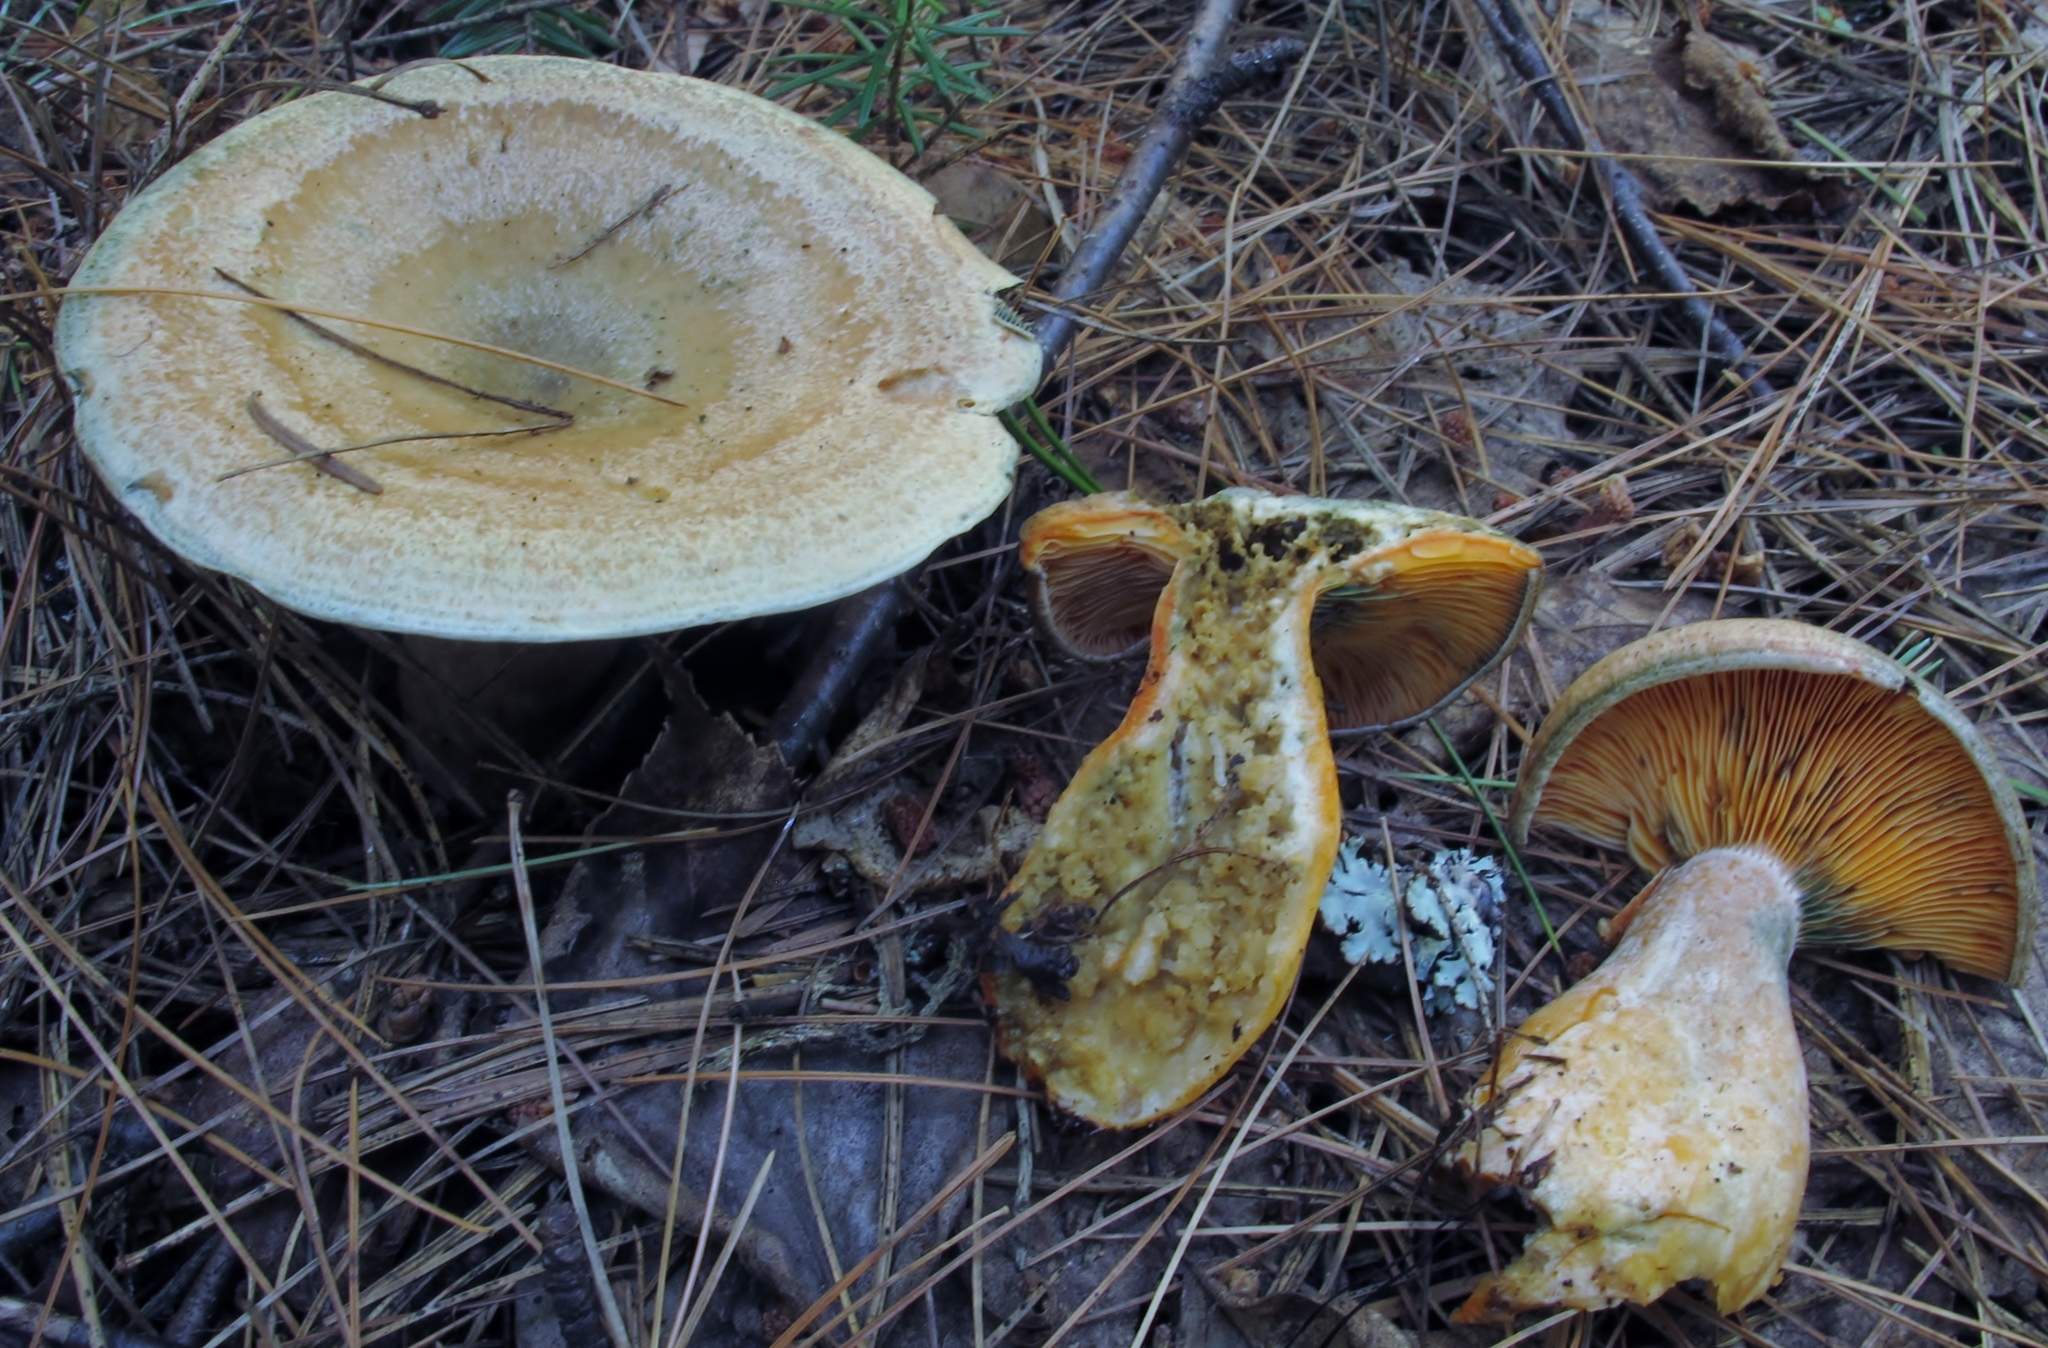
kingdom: Fungi
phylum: Basidiomycota
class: Agaricomycetes
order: Russulales
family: Russulaceae
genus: Lactarius
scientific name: Lactarius deterrimus
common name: False saffron milkcap
